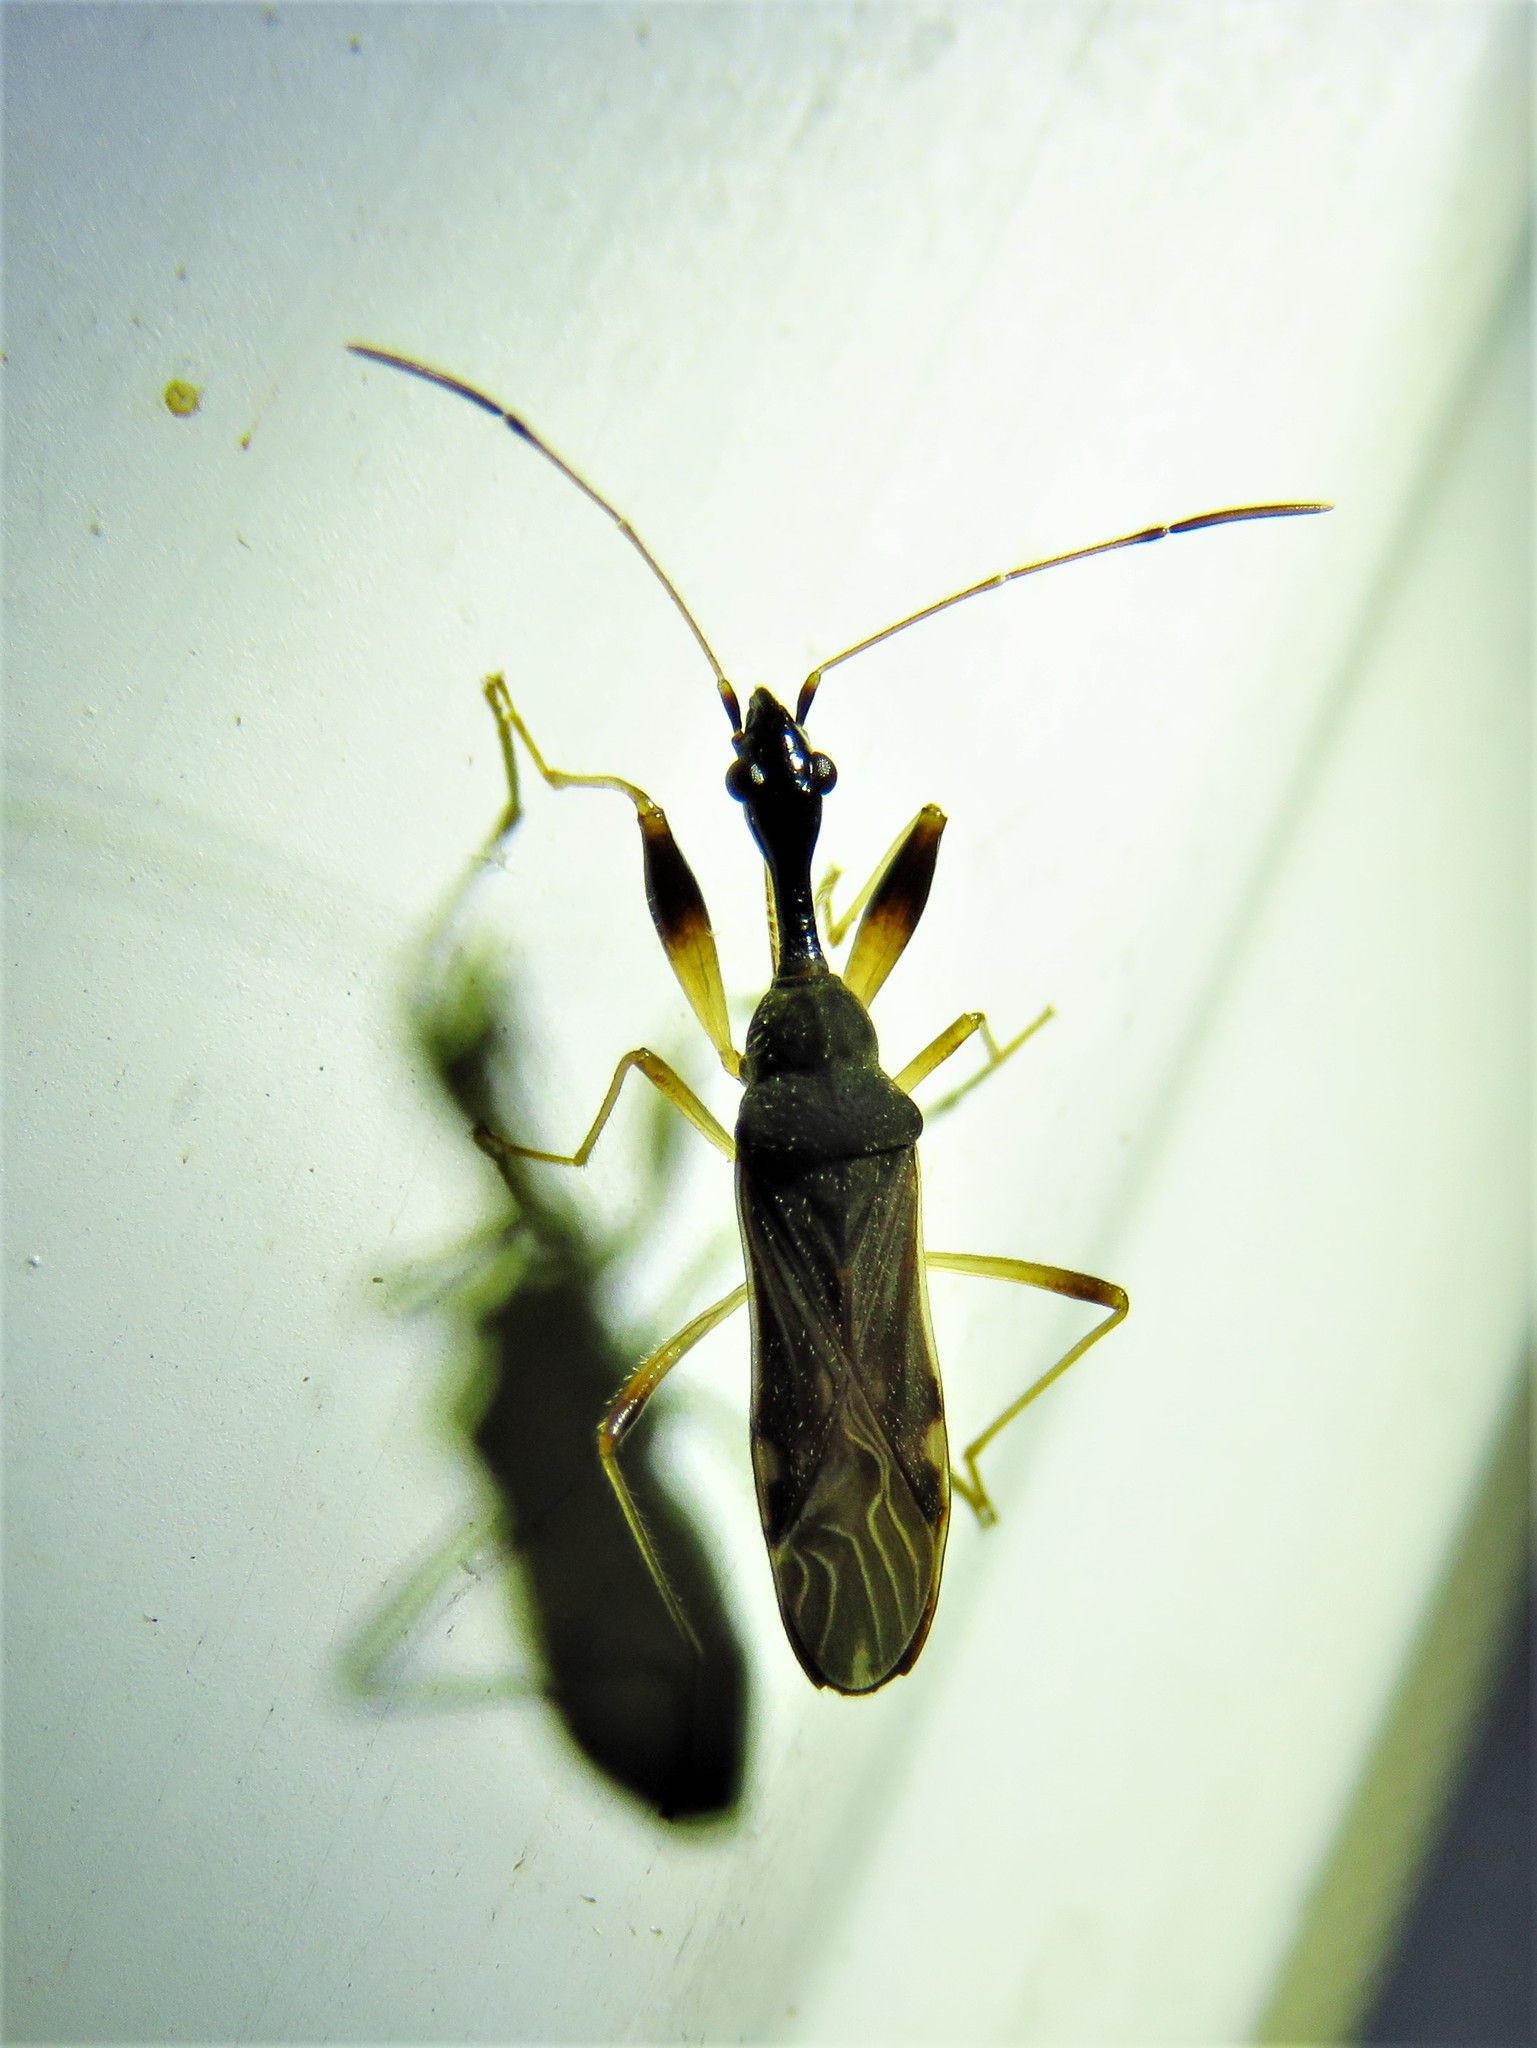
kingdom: Animalia
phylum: Arthropoda
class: Insecta
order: Hemiptera
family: Rhyparochromidae
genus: Myodocha
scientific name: Myodocha serripes
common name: Long-necked seed bug
